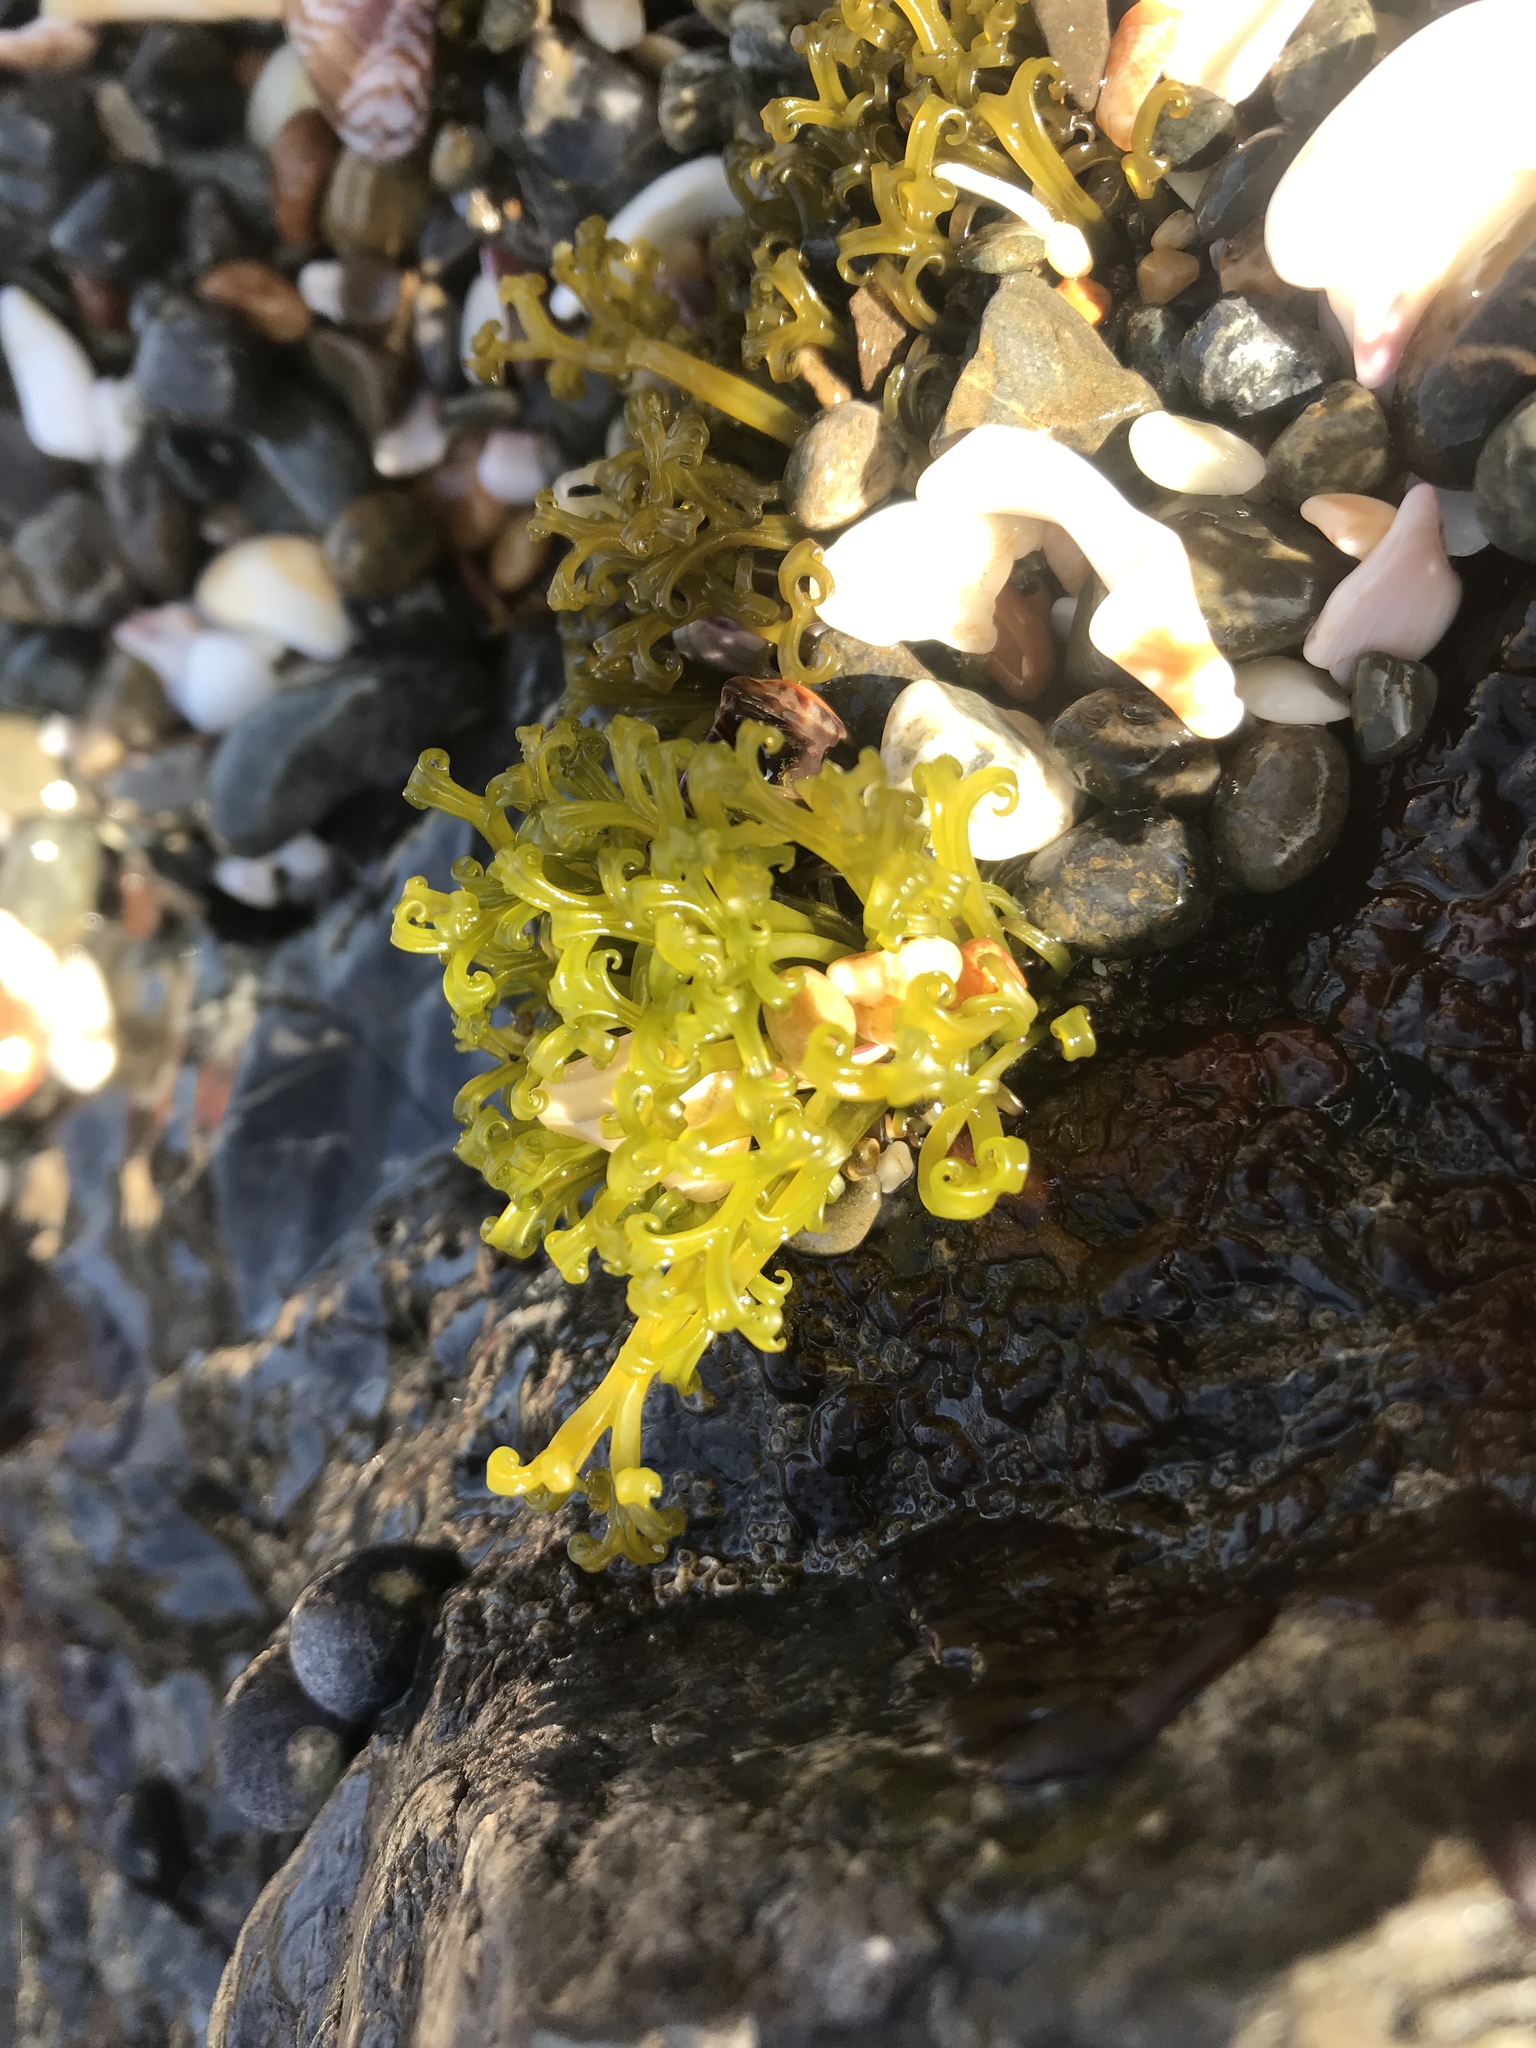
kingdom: Plantae
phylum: Rhodophyta
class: Florideophyceae
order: Gigartinales
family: Gigartinaceae
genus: Psilophycus
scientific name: Psilophycus alveatus
